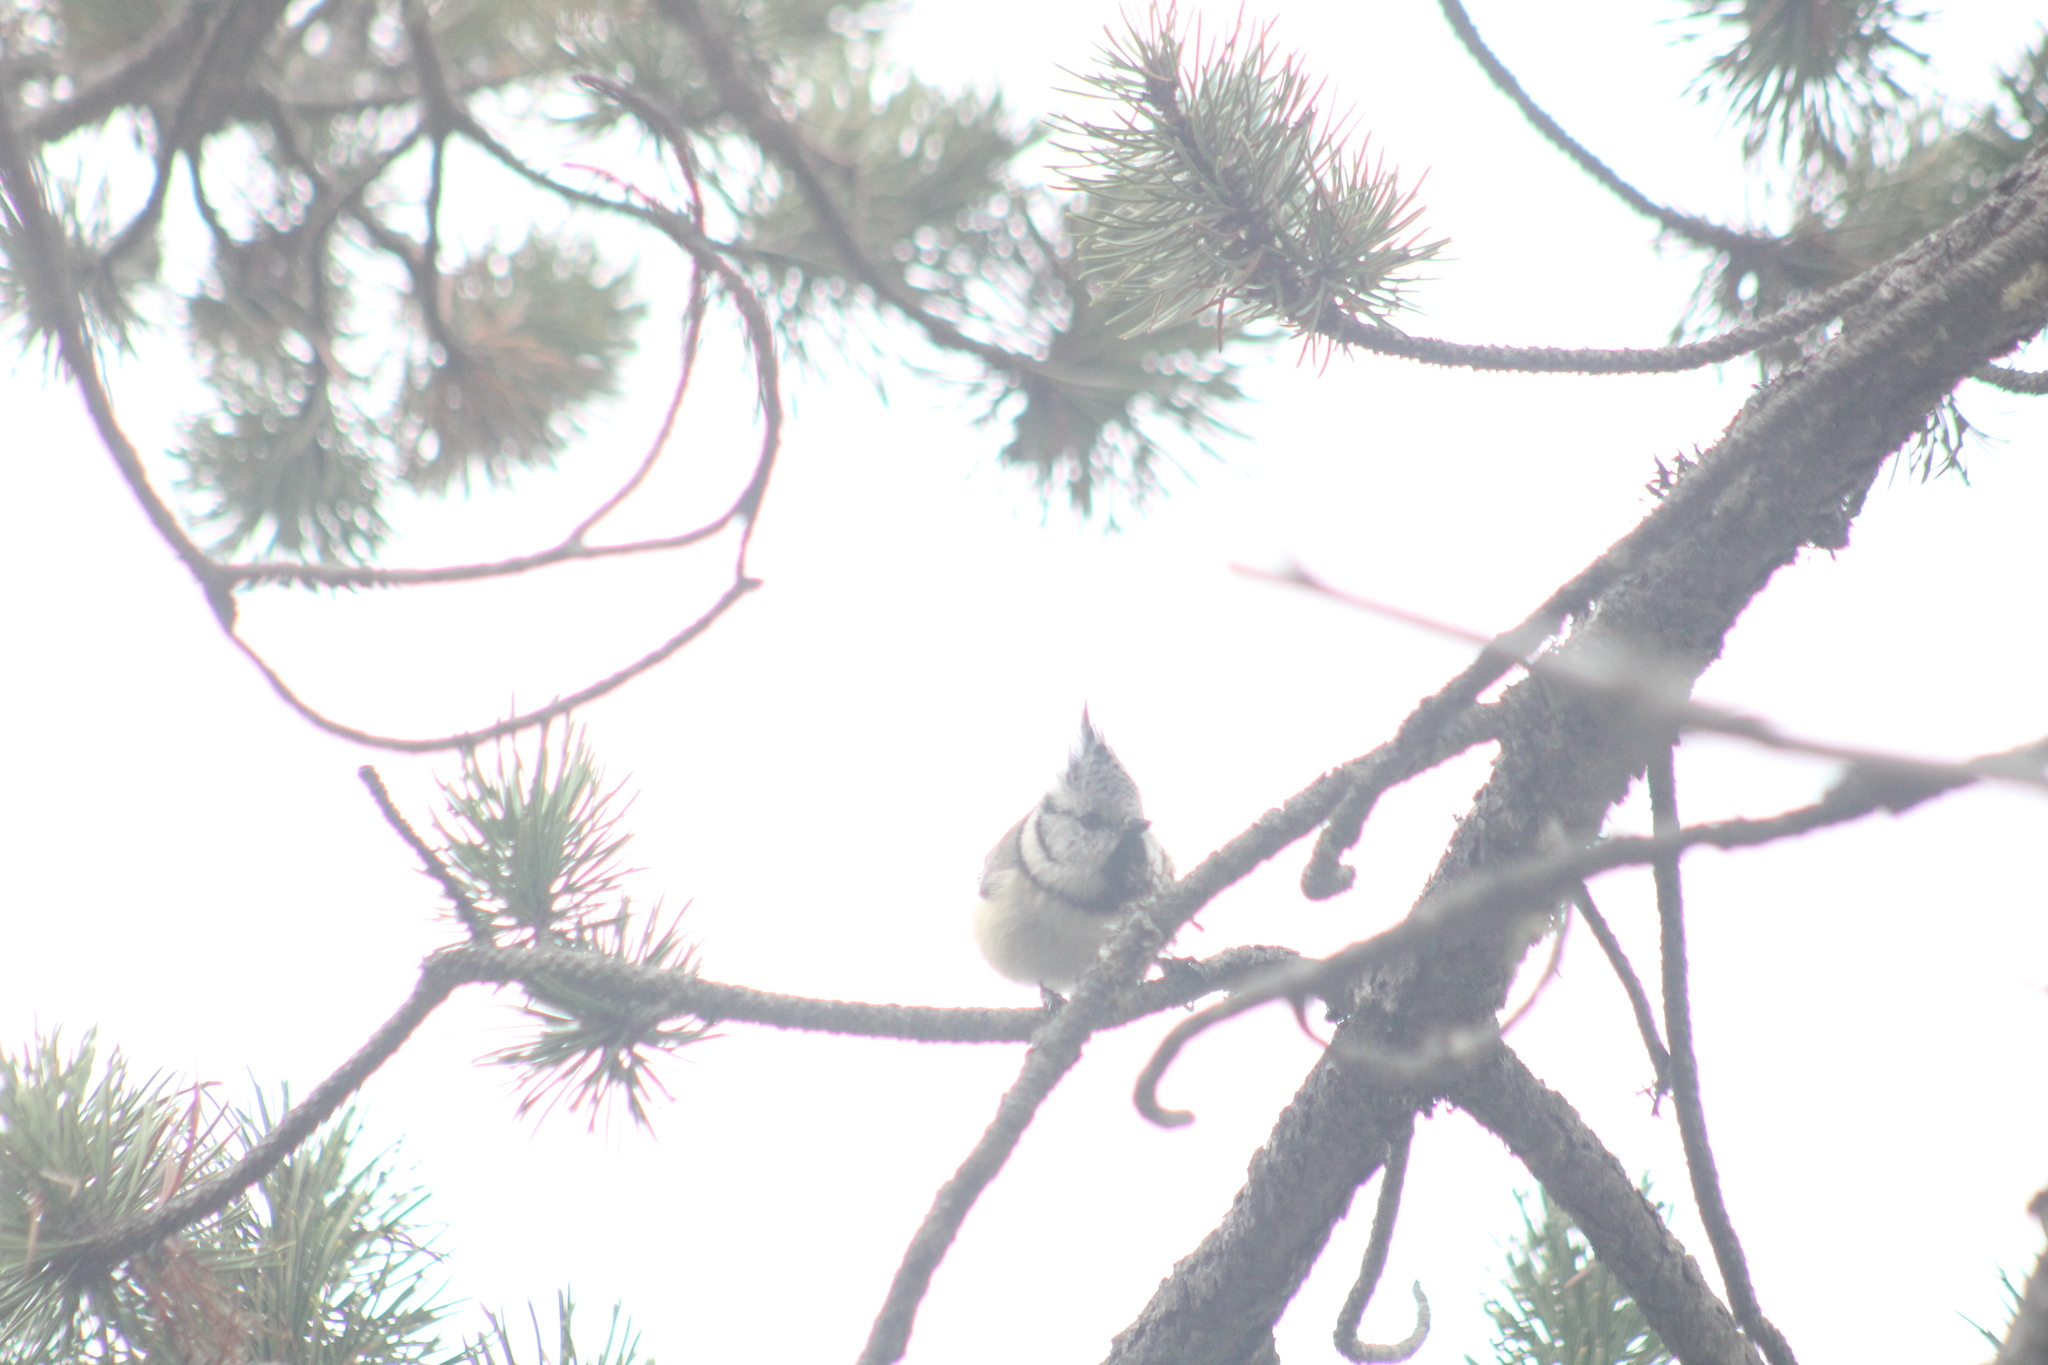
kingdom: Animalia
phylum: Chordata
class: Aves
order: Passeriformes
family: Paridae
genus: Lophophanes
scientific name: Lophophanes cristatus
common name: European crested tit
